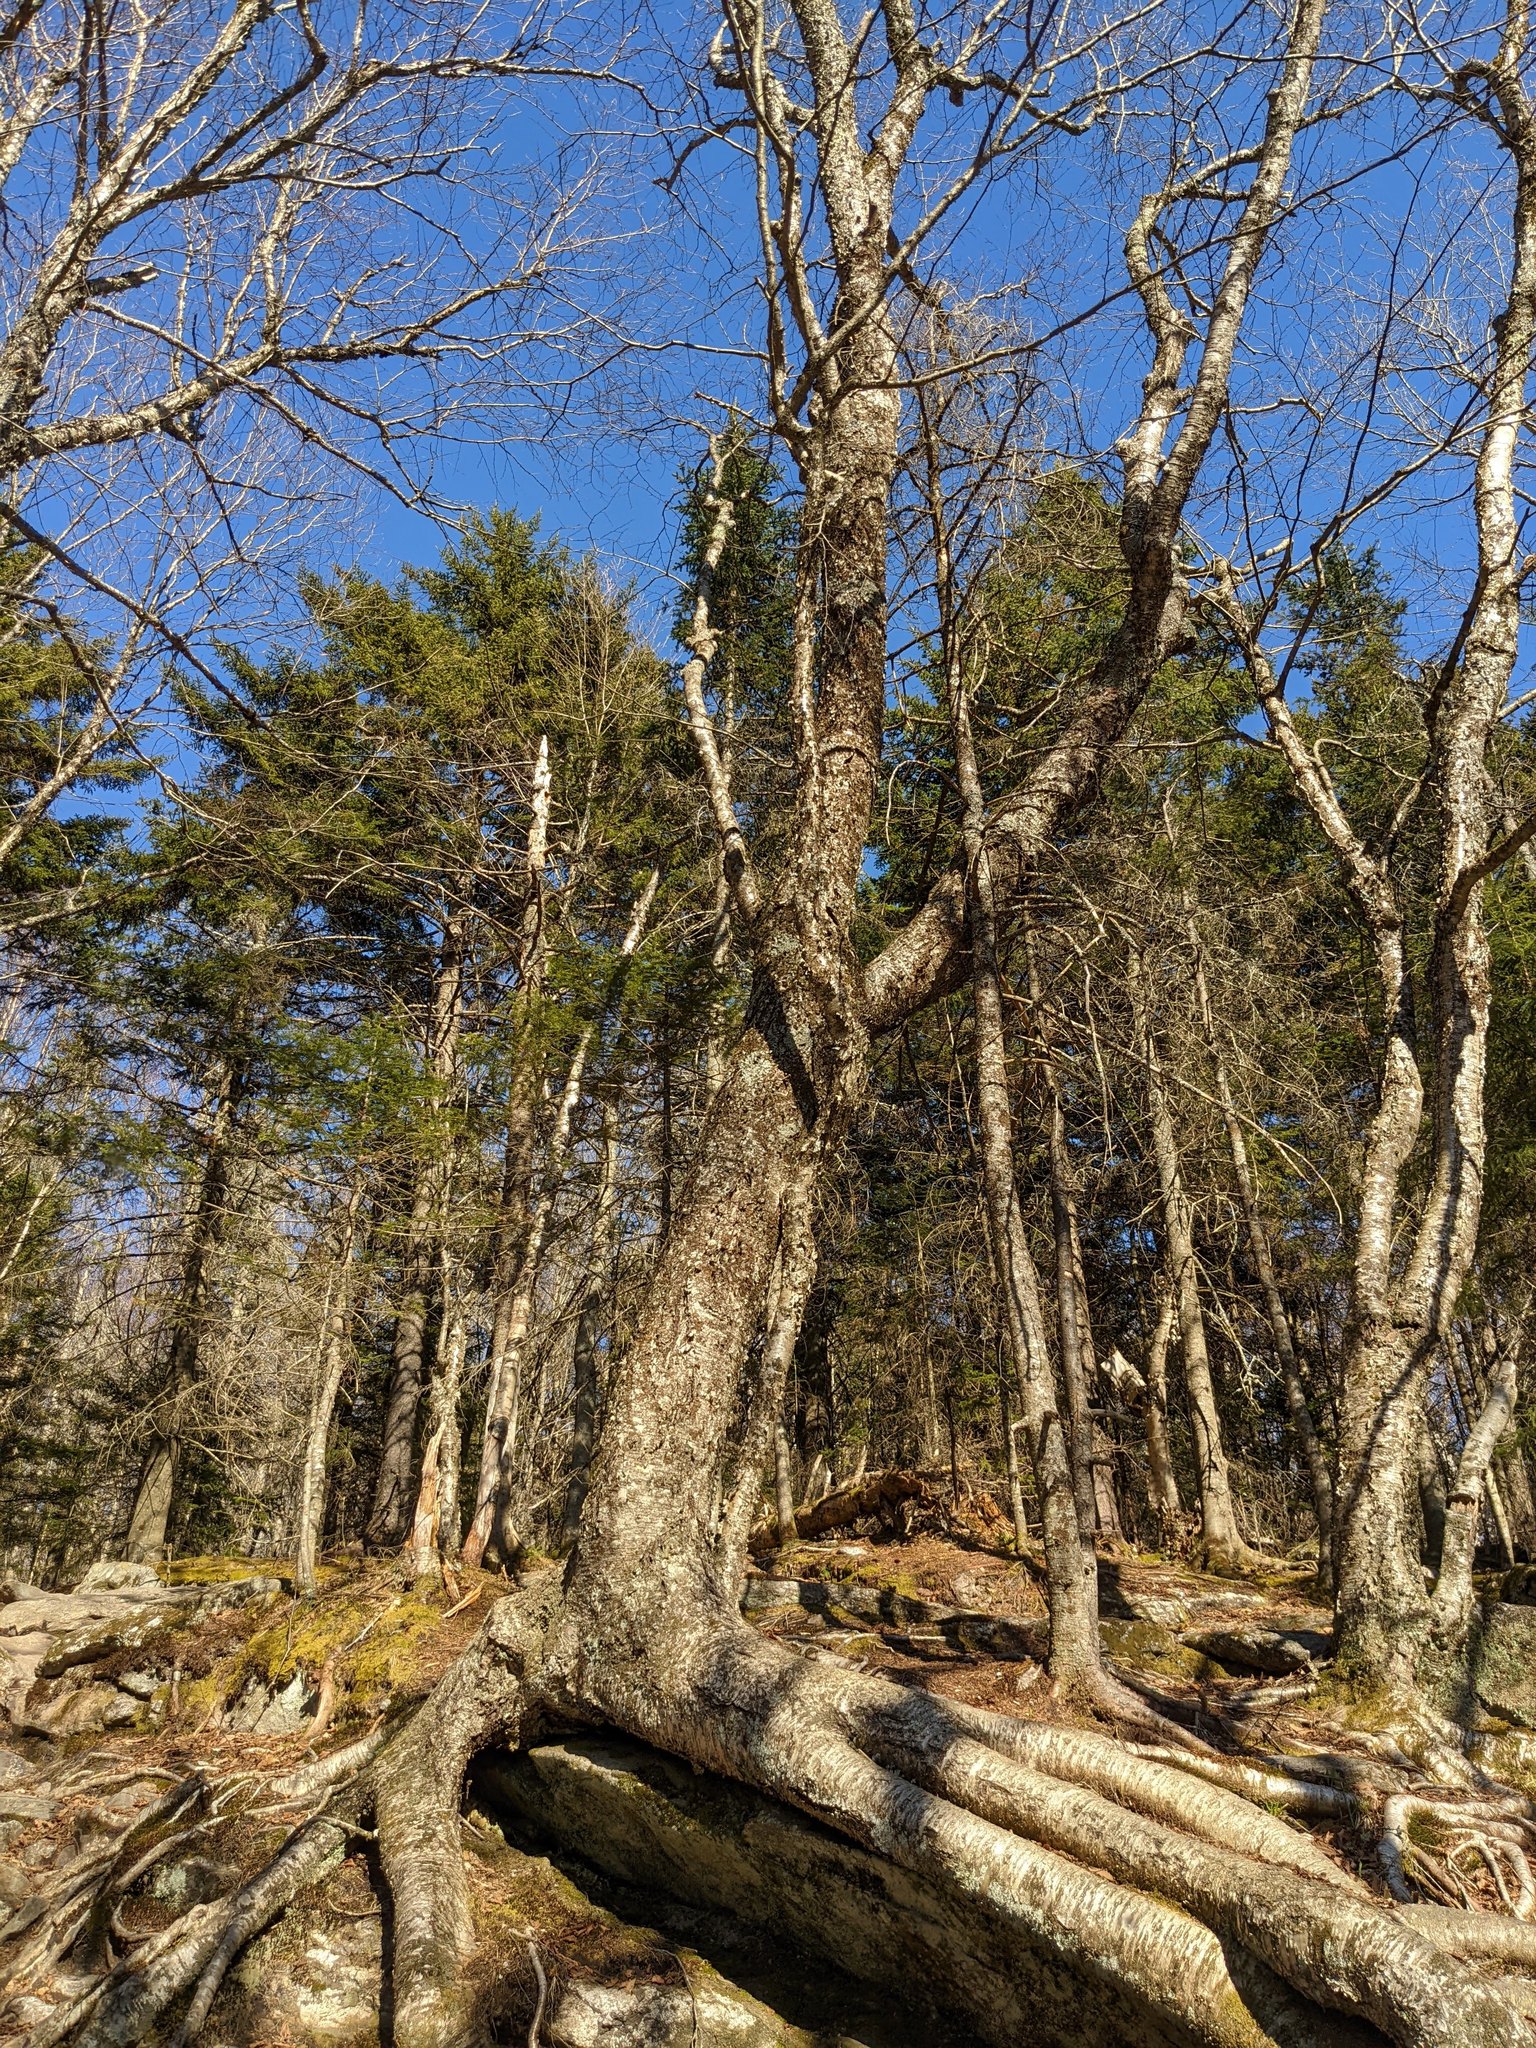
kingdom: Plantae
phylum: Tracheophyta
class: Magnoliopsida
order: Fagales
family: Betulaceae
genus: Betula
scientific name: Betula alleghaniensis
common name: Yellow birch
